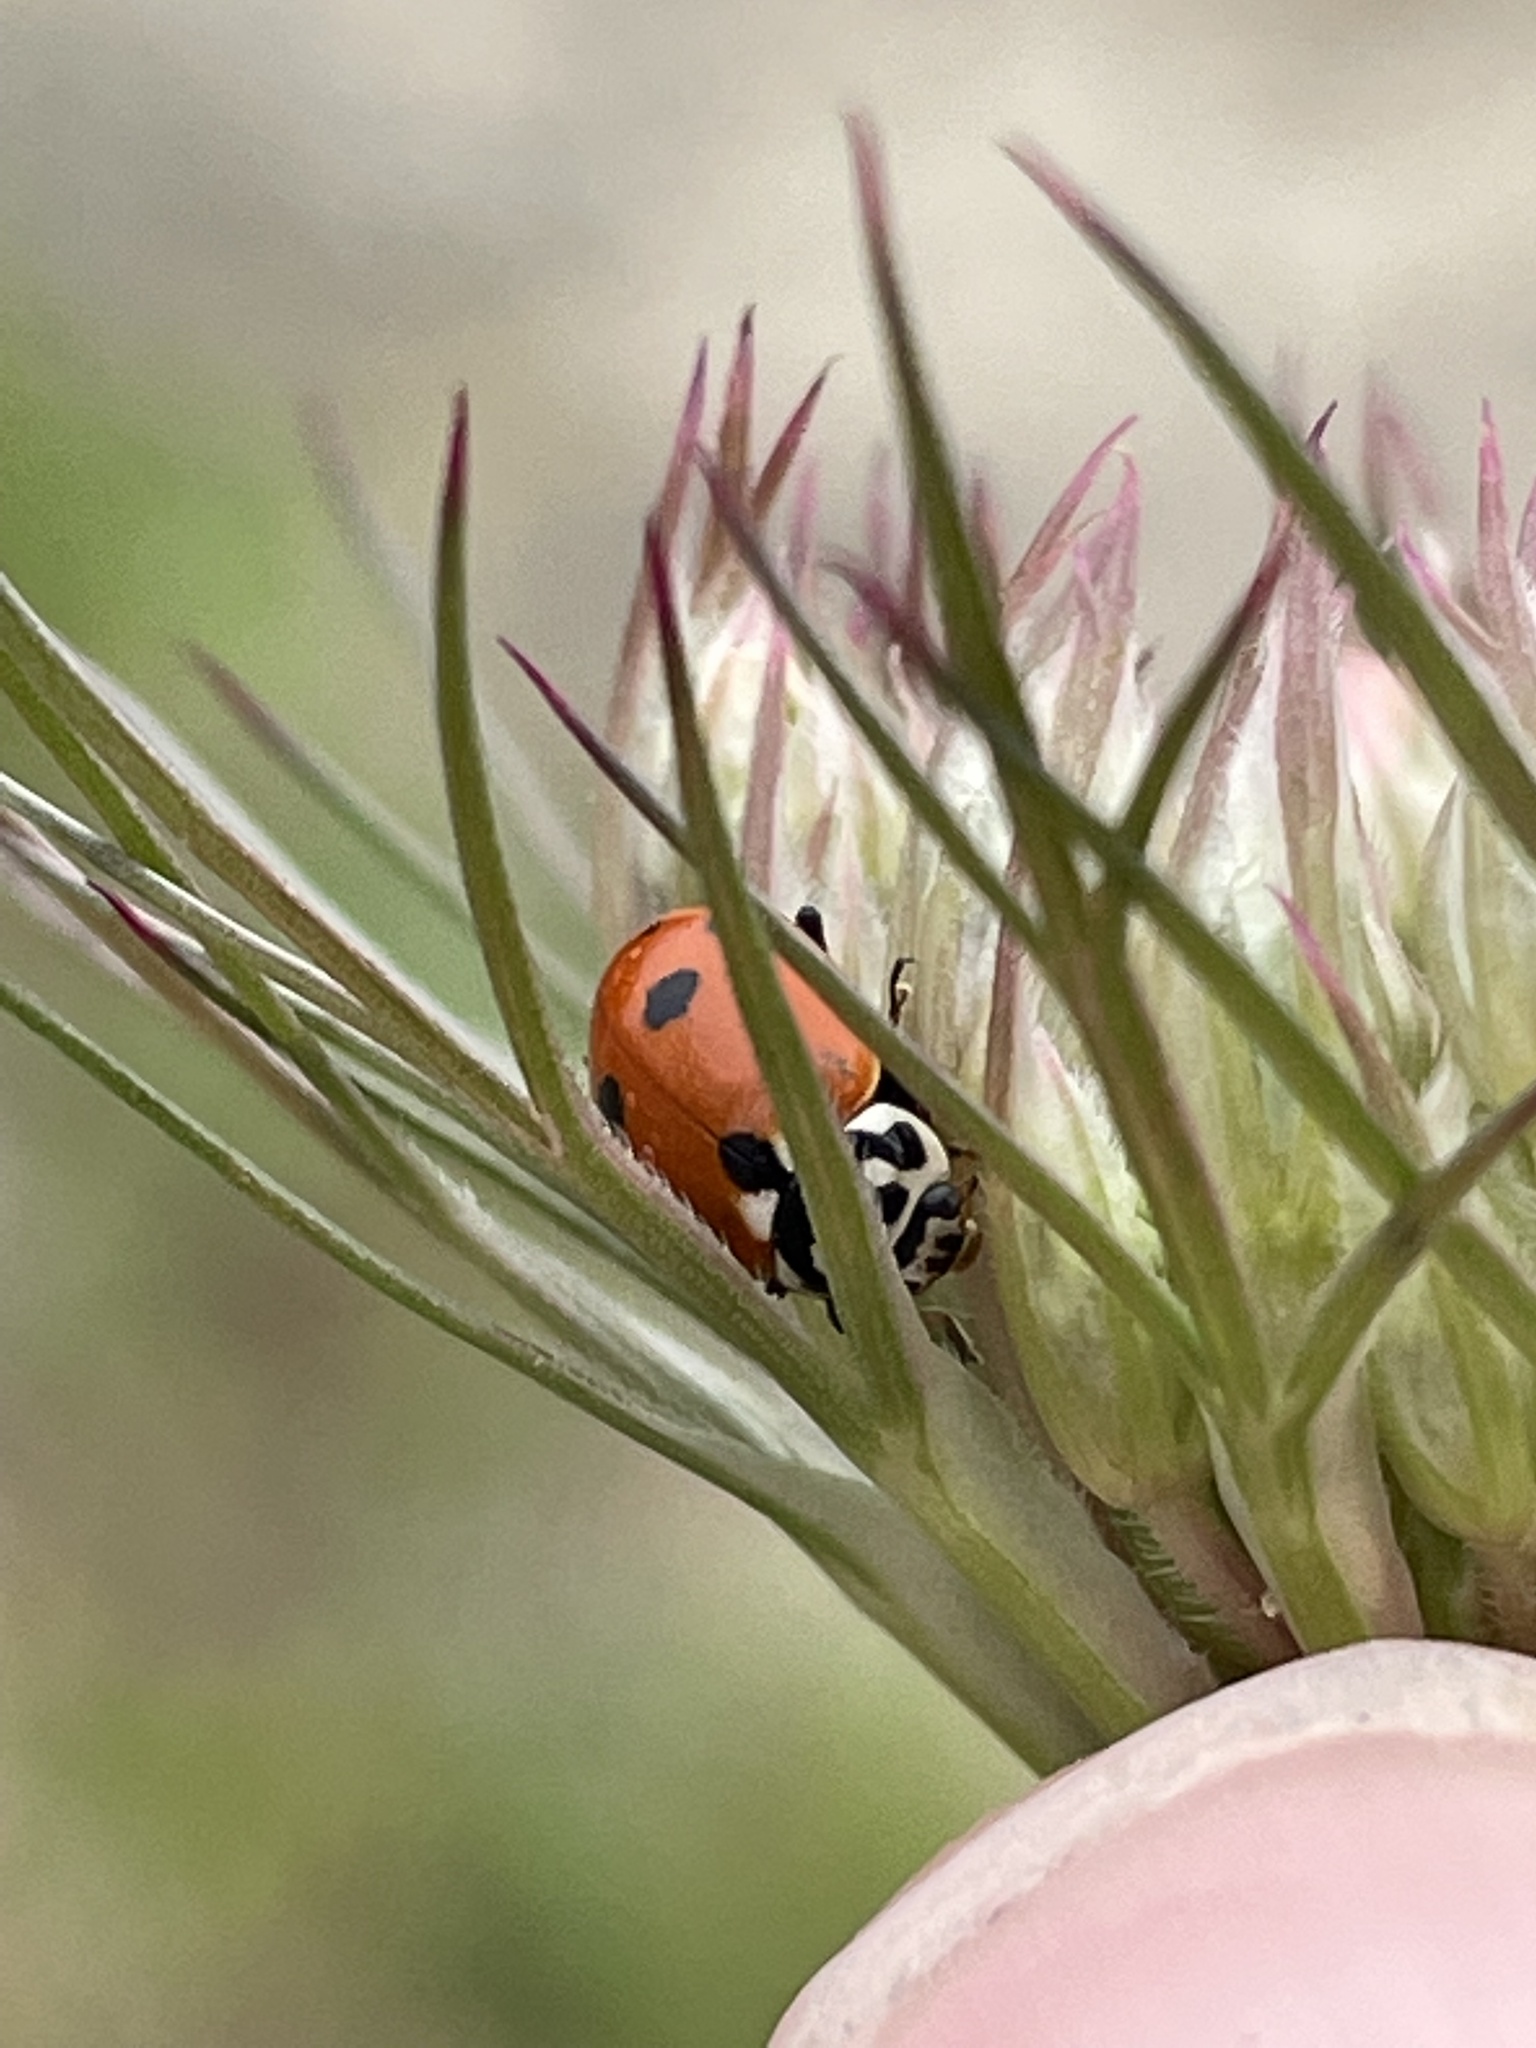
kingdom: Animalia
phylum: Arthropoda
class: Insecta
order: Coleoptera
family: Coccinellidae
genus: Hippodamia
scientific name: Hippodamia variegata
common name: Ladybird beetle
